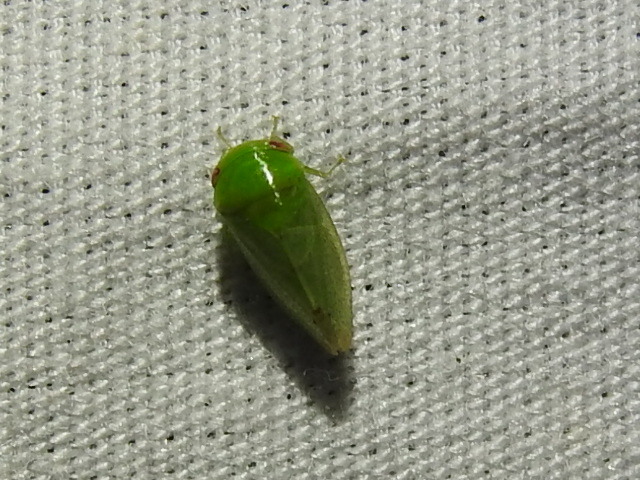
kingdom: Animalia
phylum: Arthropoda
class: Insecta
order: Hemiptera
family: Cicadellidae
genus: Penestragania
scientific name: Penestragania robusta
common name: Robust leafhopper
